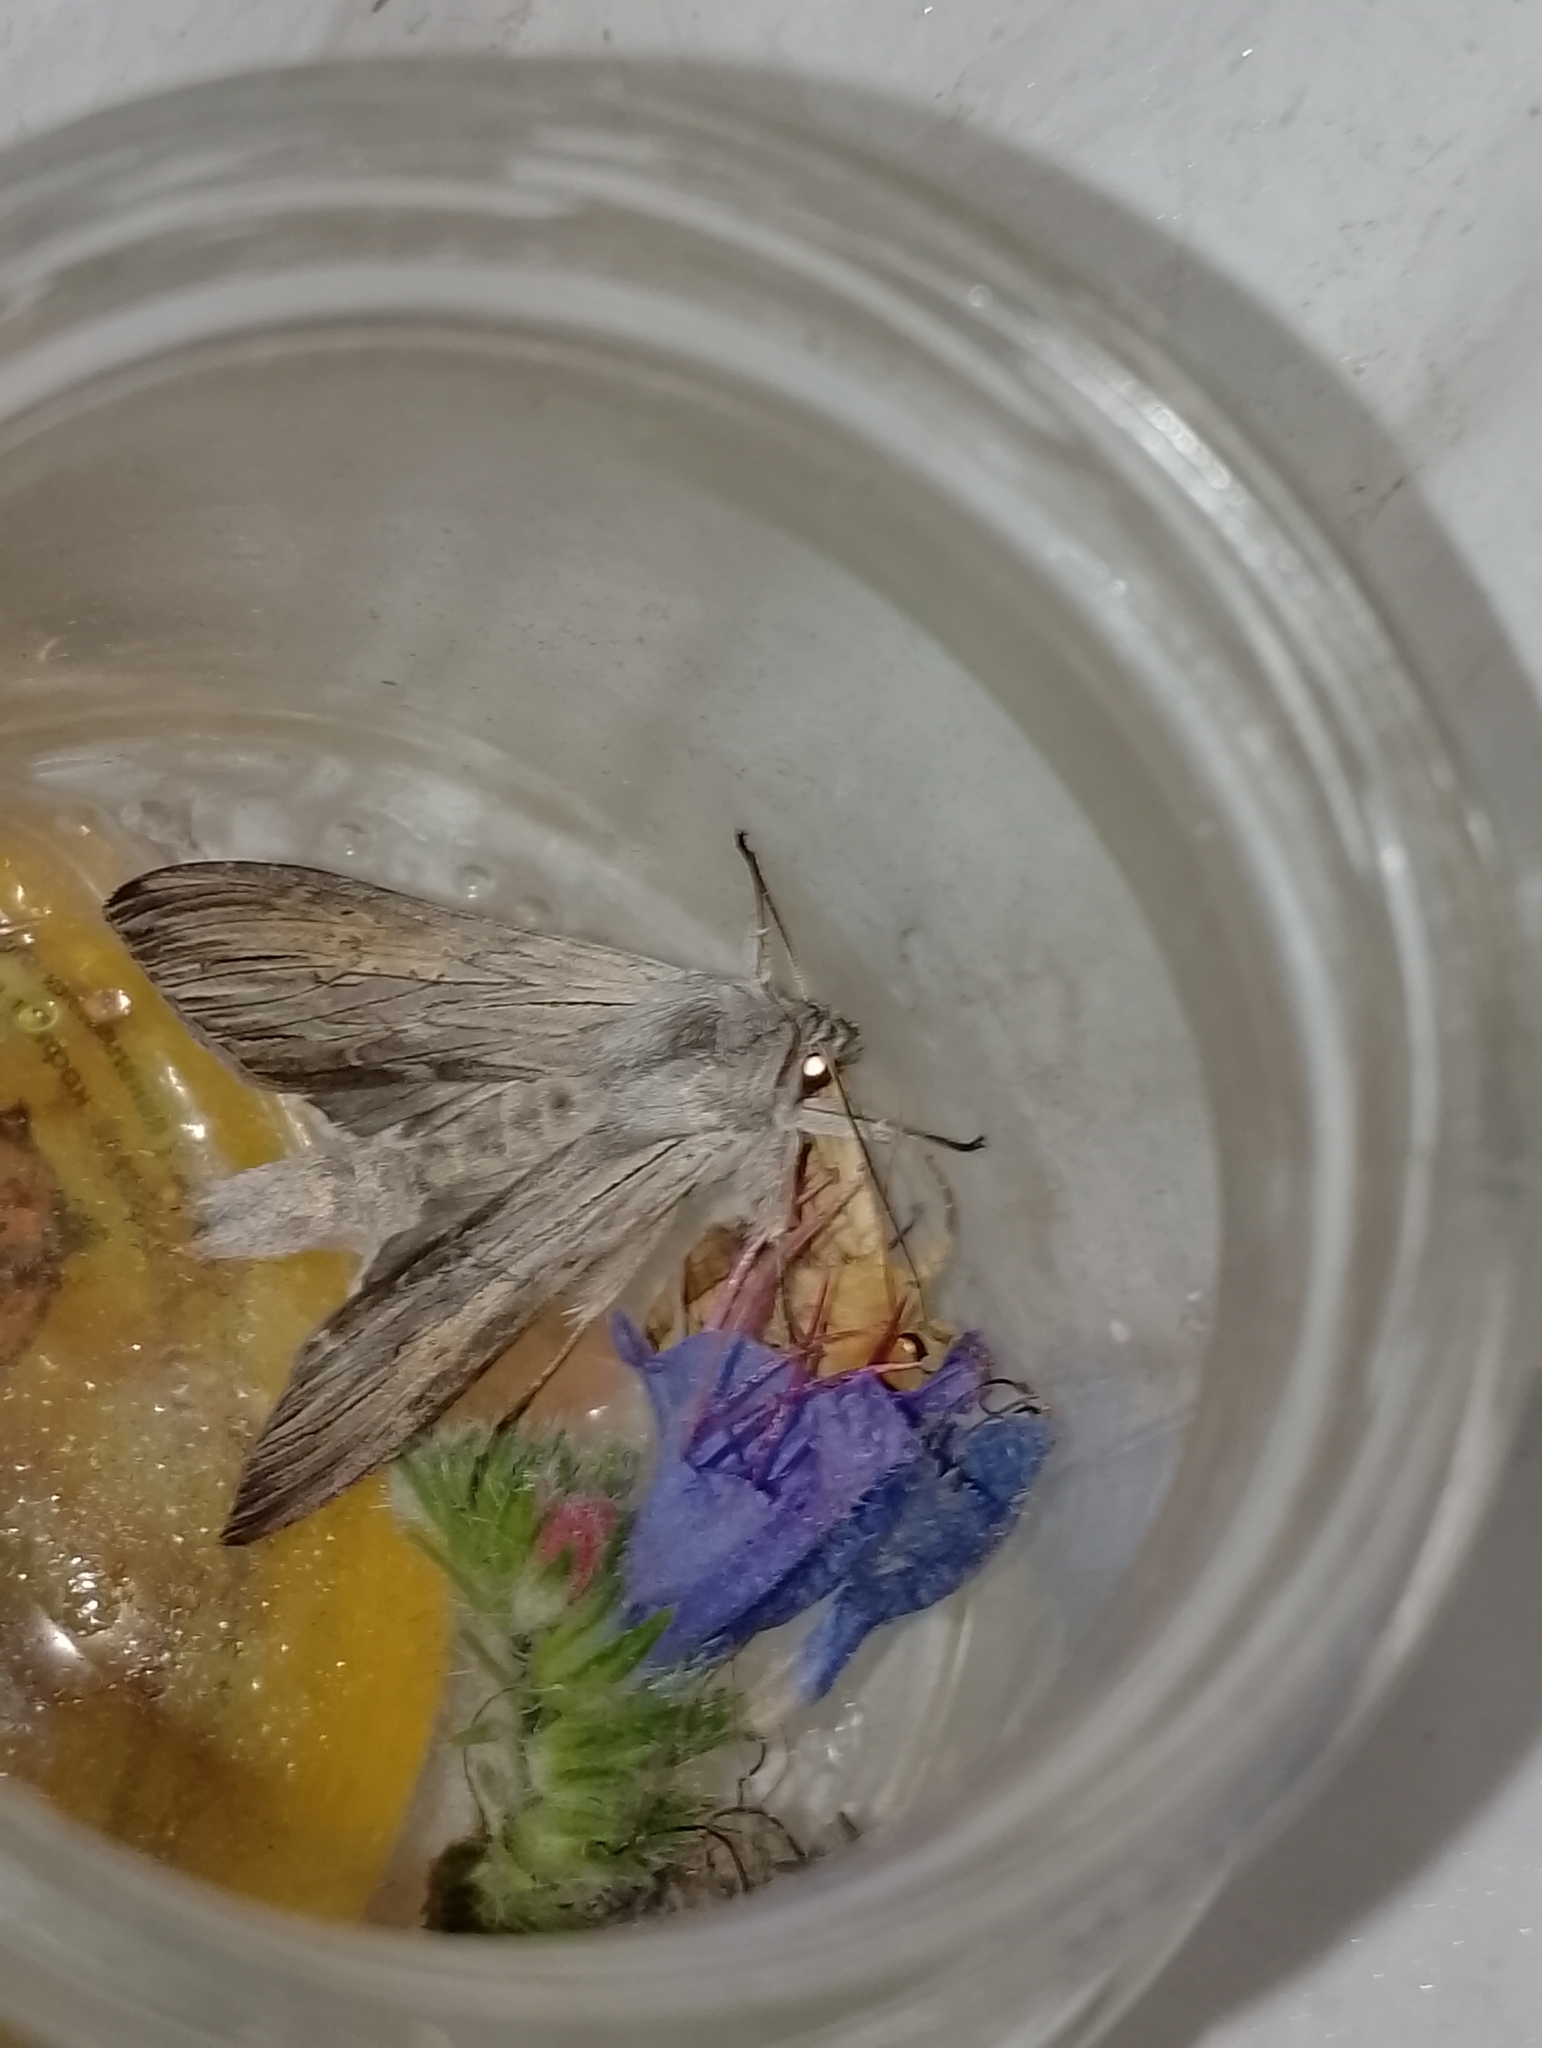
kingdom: Animalia
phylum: Arthropoda
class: Insecta
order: Lepidoptera
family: Noctuidae
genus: Cucullia
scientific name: Cucullia umbratica
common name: Shark
